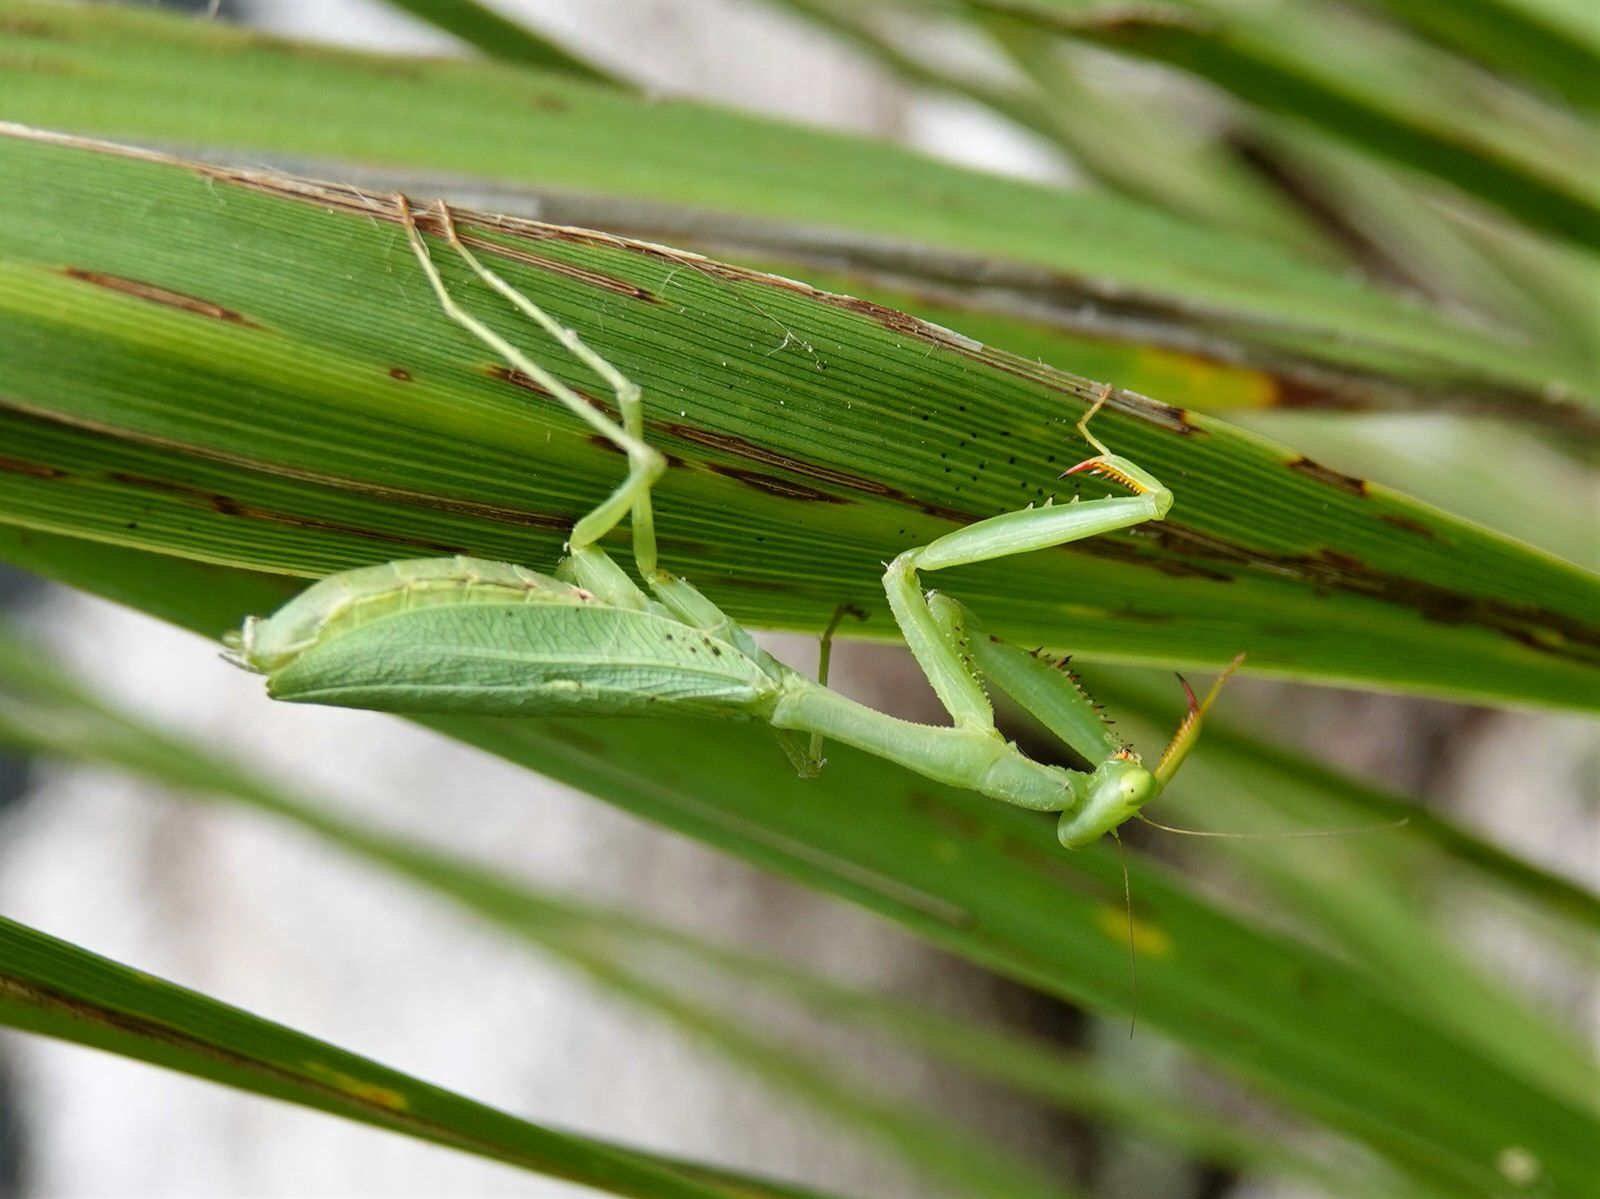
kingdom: Animalia
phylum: Arthropoda
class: Insecta
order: Mantodea
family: Miomantidae
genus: Miomantis
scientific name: Miomantis caffra
